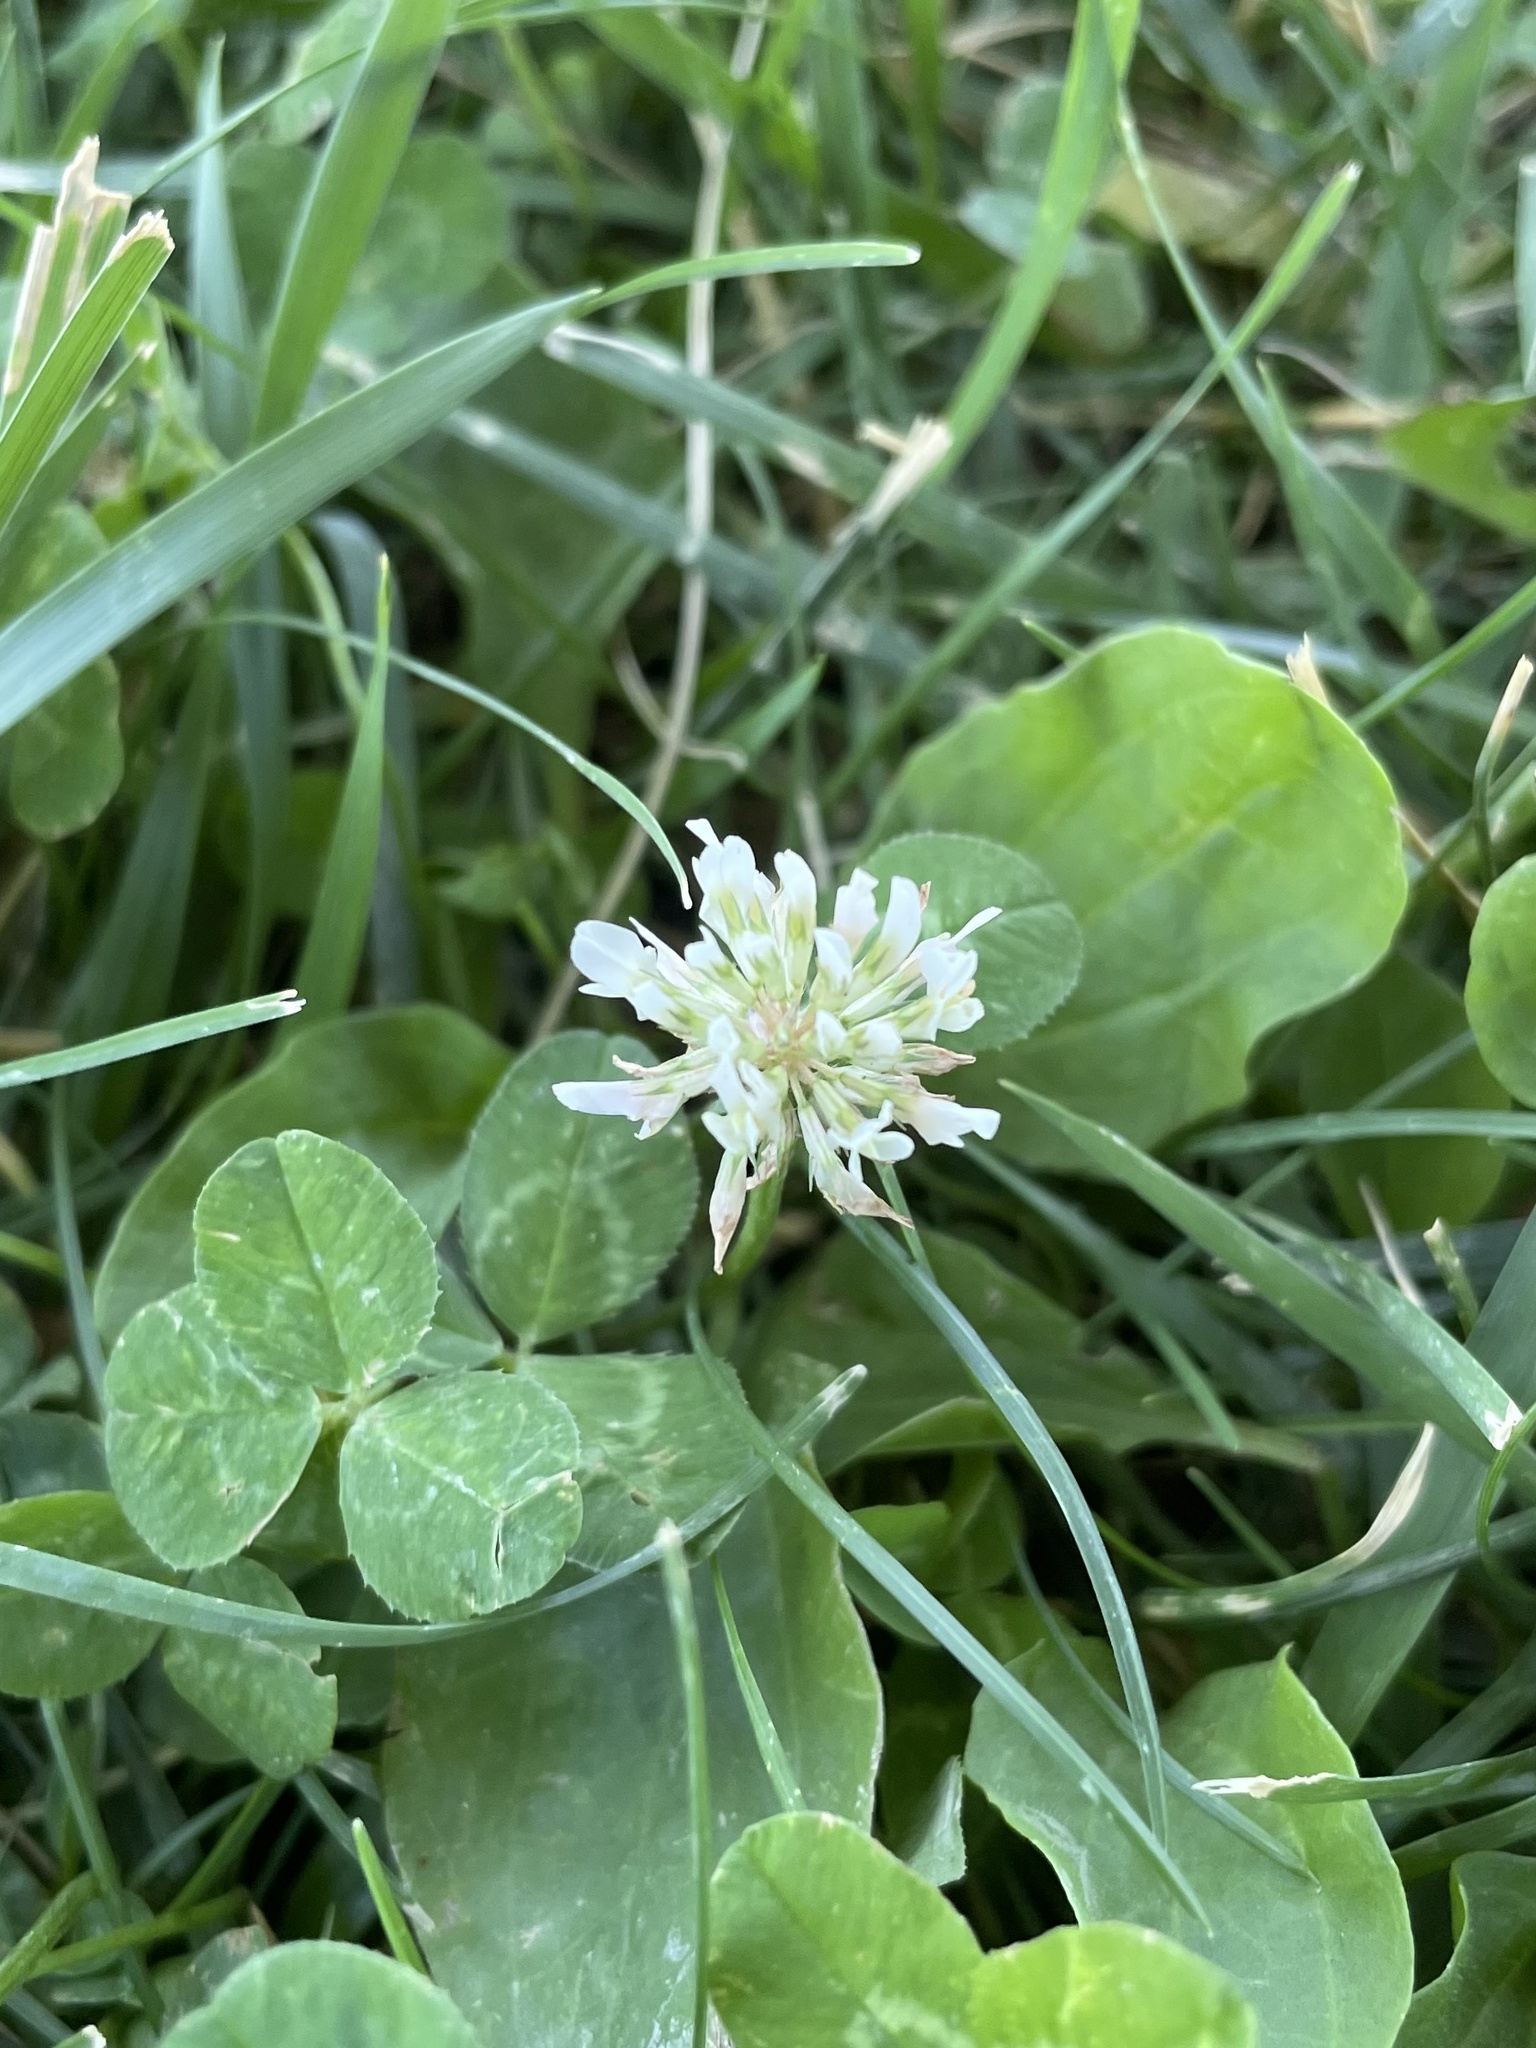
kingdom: Plantae
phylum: Tracheophyta
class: Magnoliopsida
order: Fabales
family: Fabaceae
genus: Trifolium
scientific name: Trifolium repens
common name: White clover
